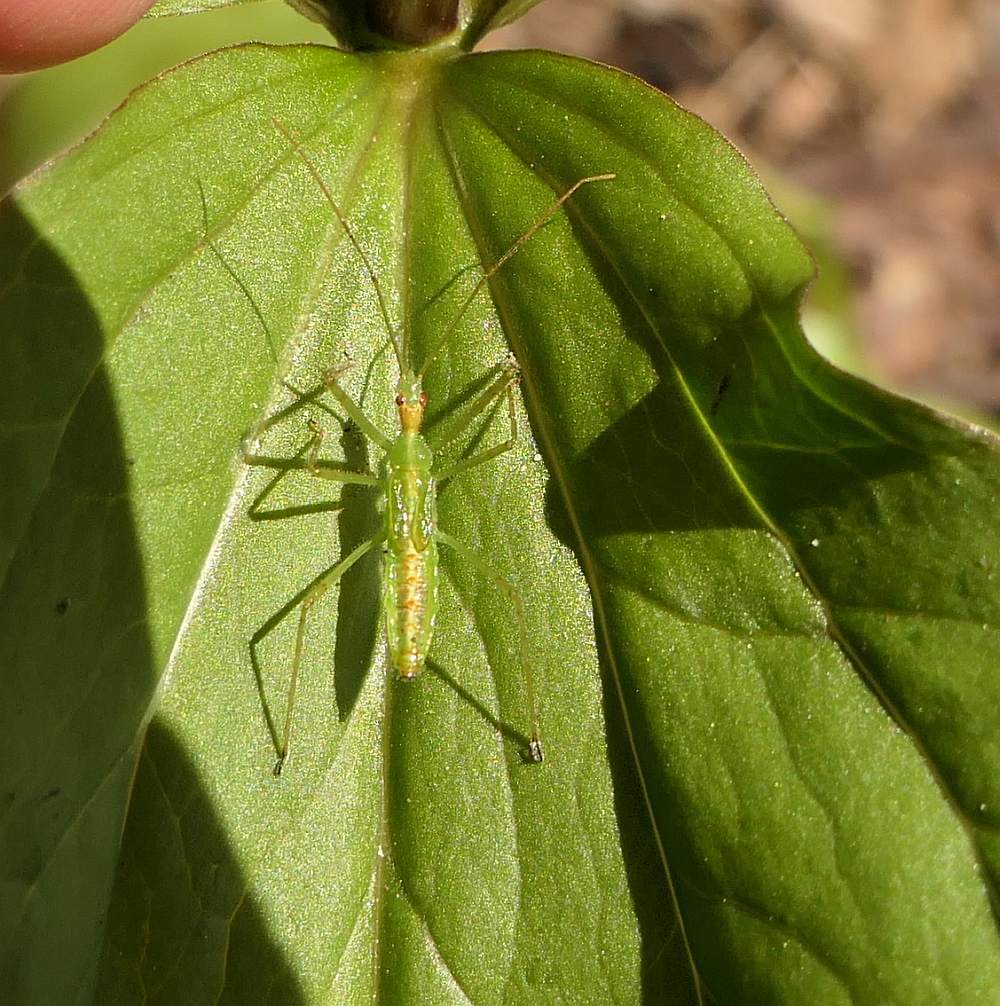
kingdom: Animalia
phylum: Arthropoda
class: Insecta
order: Hemiptera
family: Reduviidae
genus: Zelus
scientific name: Zelus luridus
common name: Pale green assassin bug
